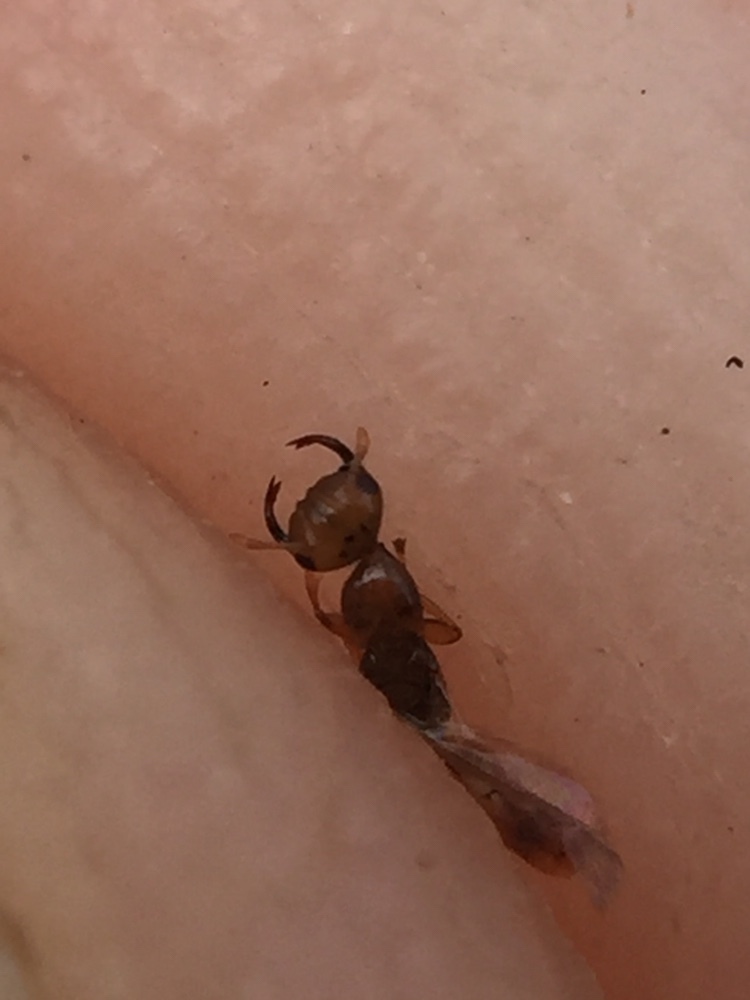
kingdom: Animalia
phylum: Arthropoda
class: Insecta
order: Hymenoptera
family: Agaonidae
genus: Odontofroggatia
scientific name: Odontofroggatia galili
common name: Fig wasp
